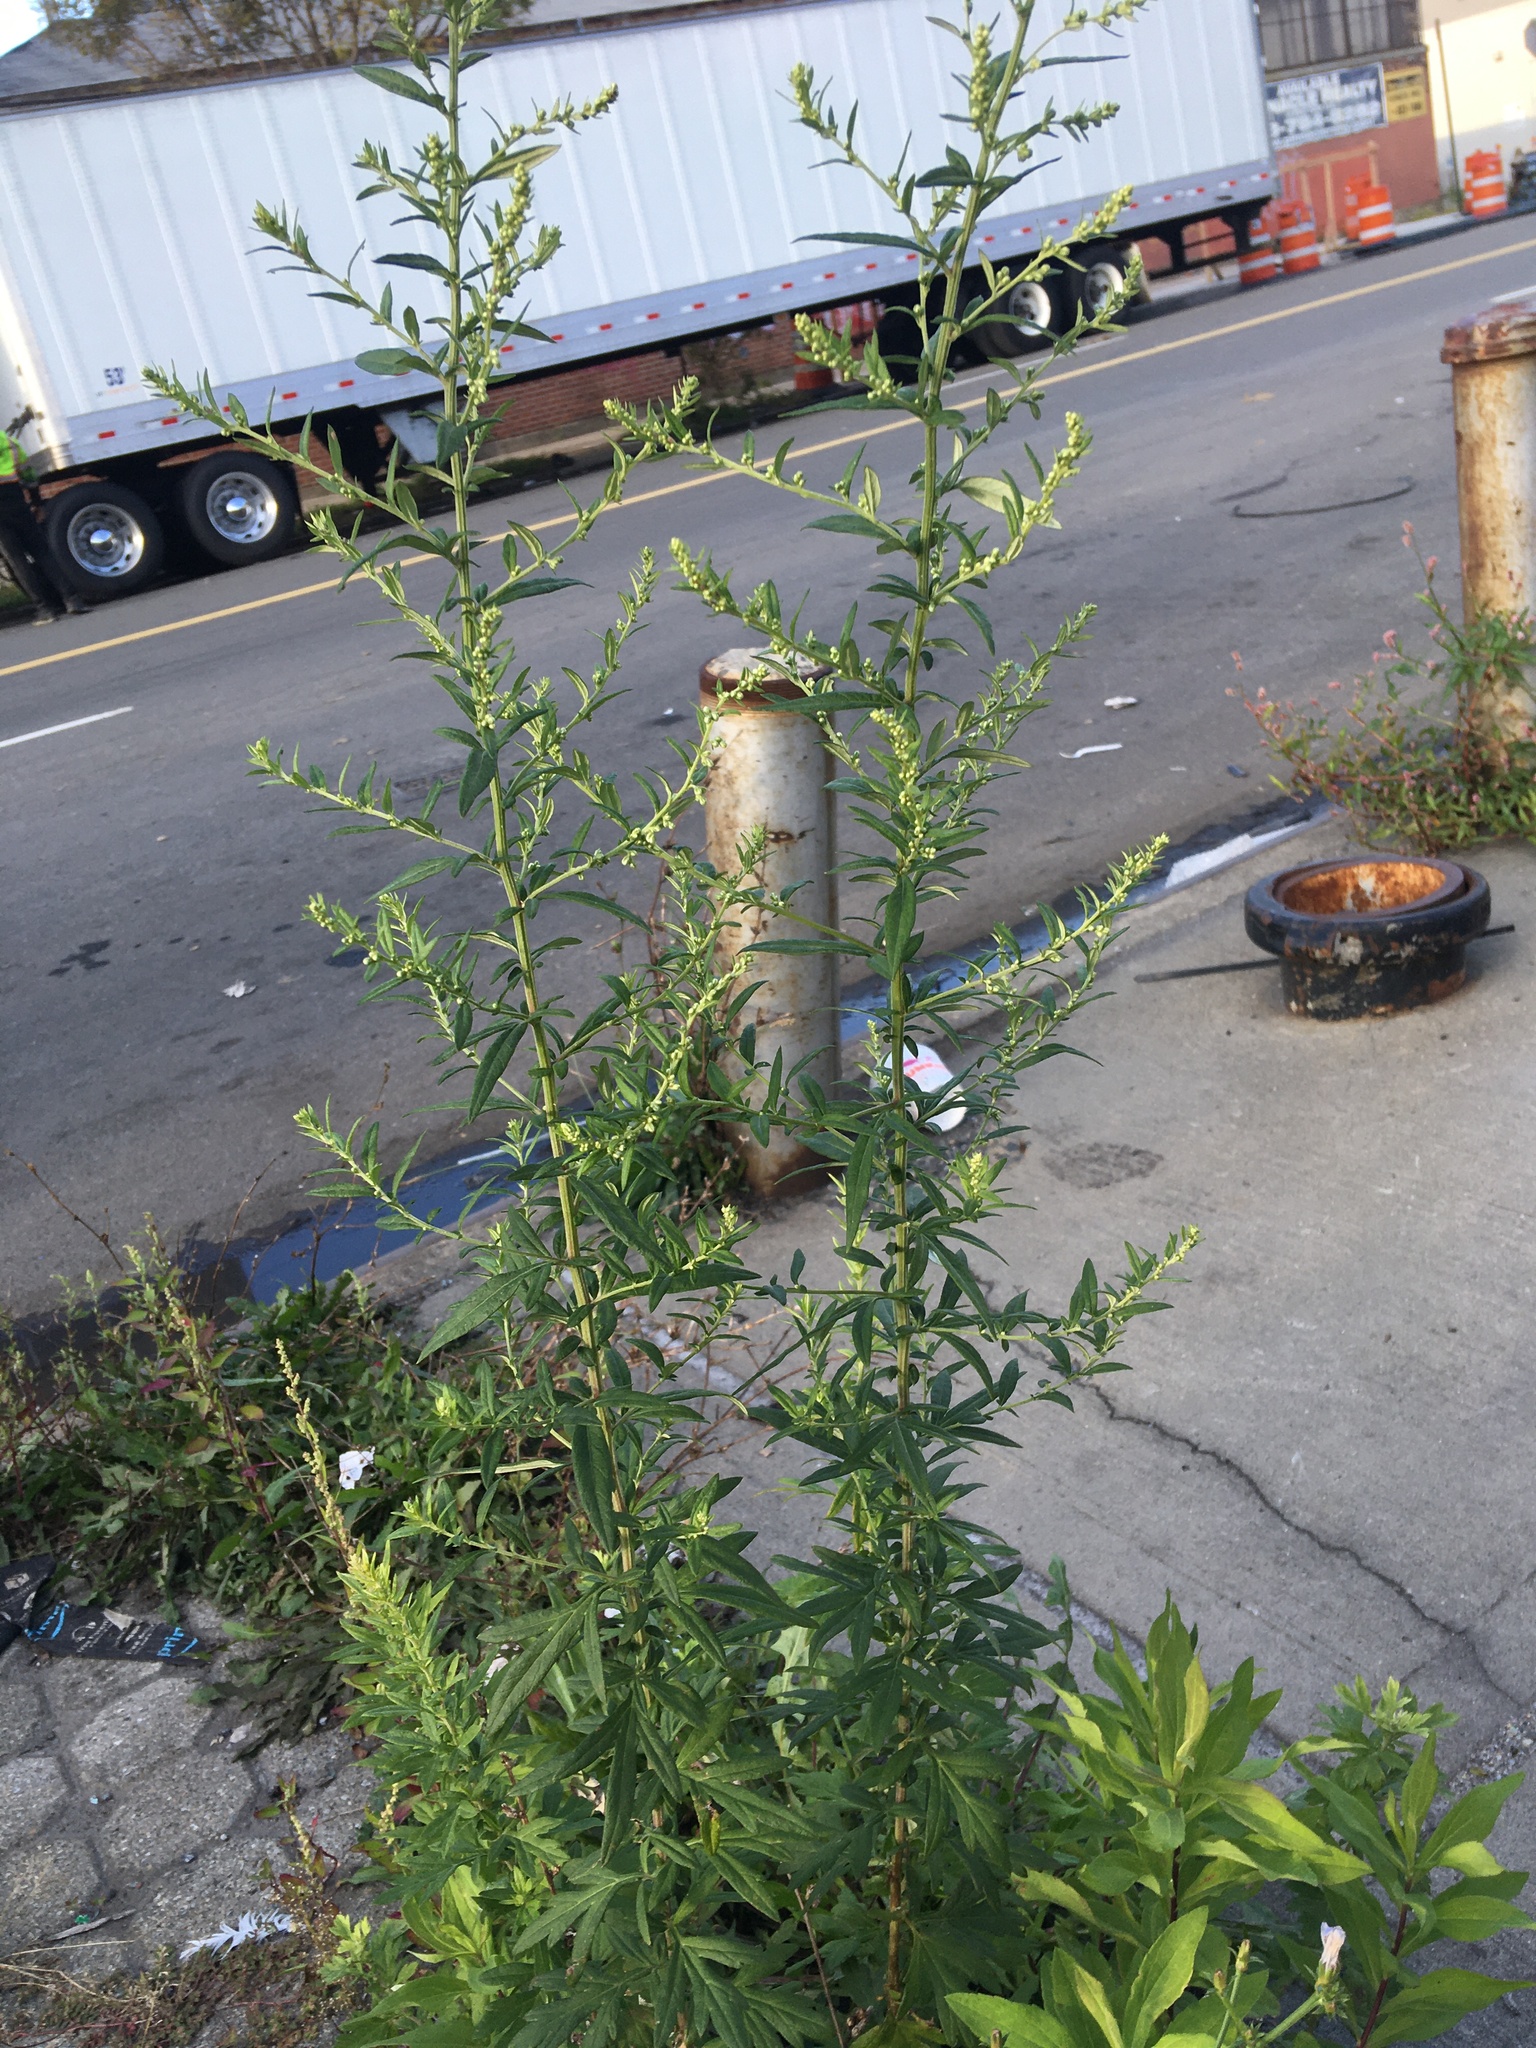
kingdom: Plantae
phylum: Tracheophyta
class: Magnoliopsida
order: Asterales
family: Asteraceae
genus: Artemisia
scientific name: Artemisia vulgaris
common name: Mugwort
